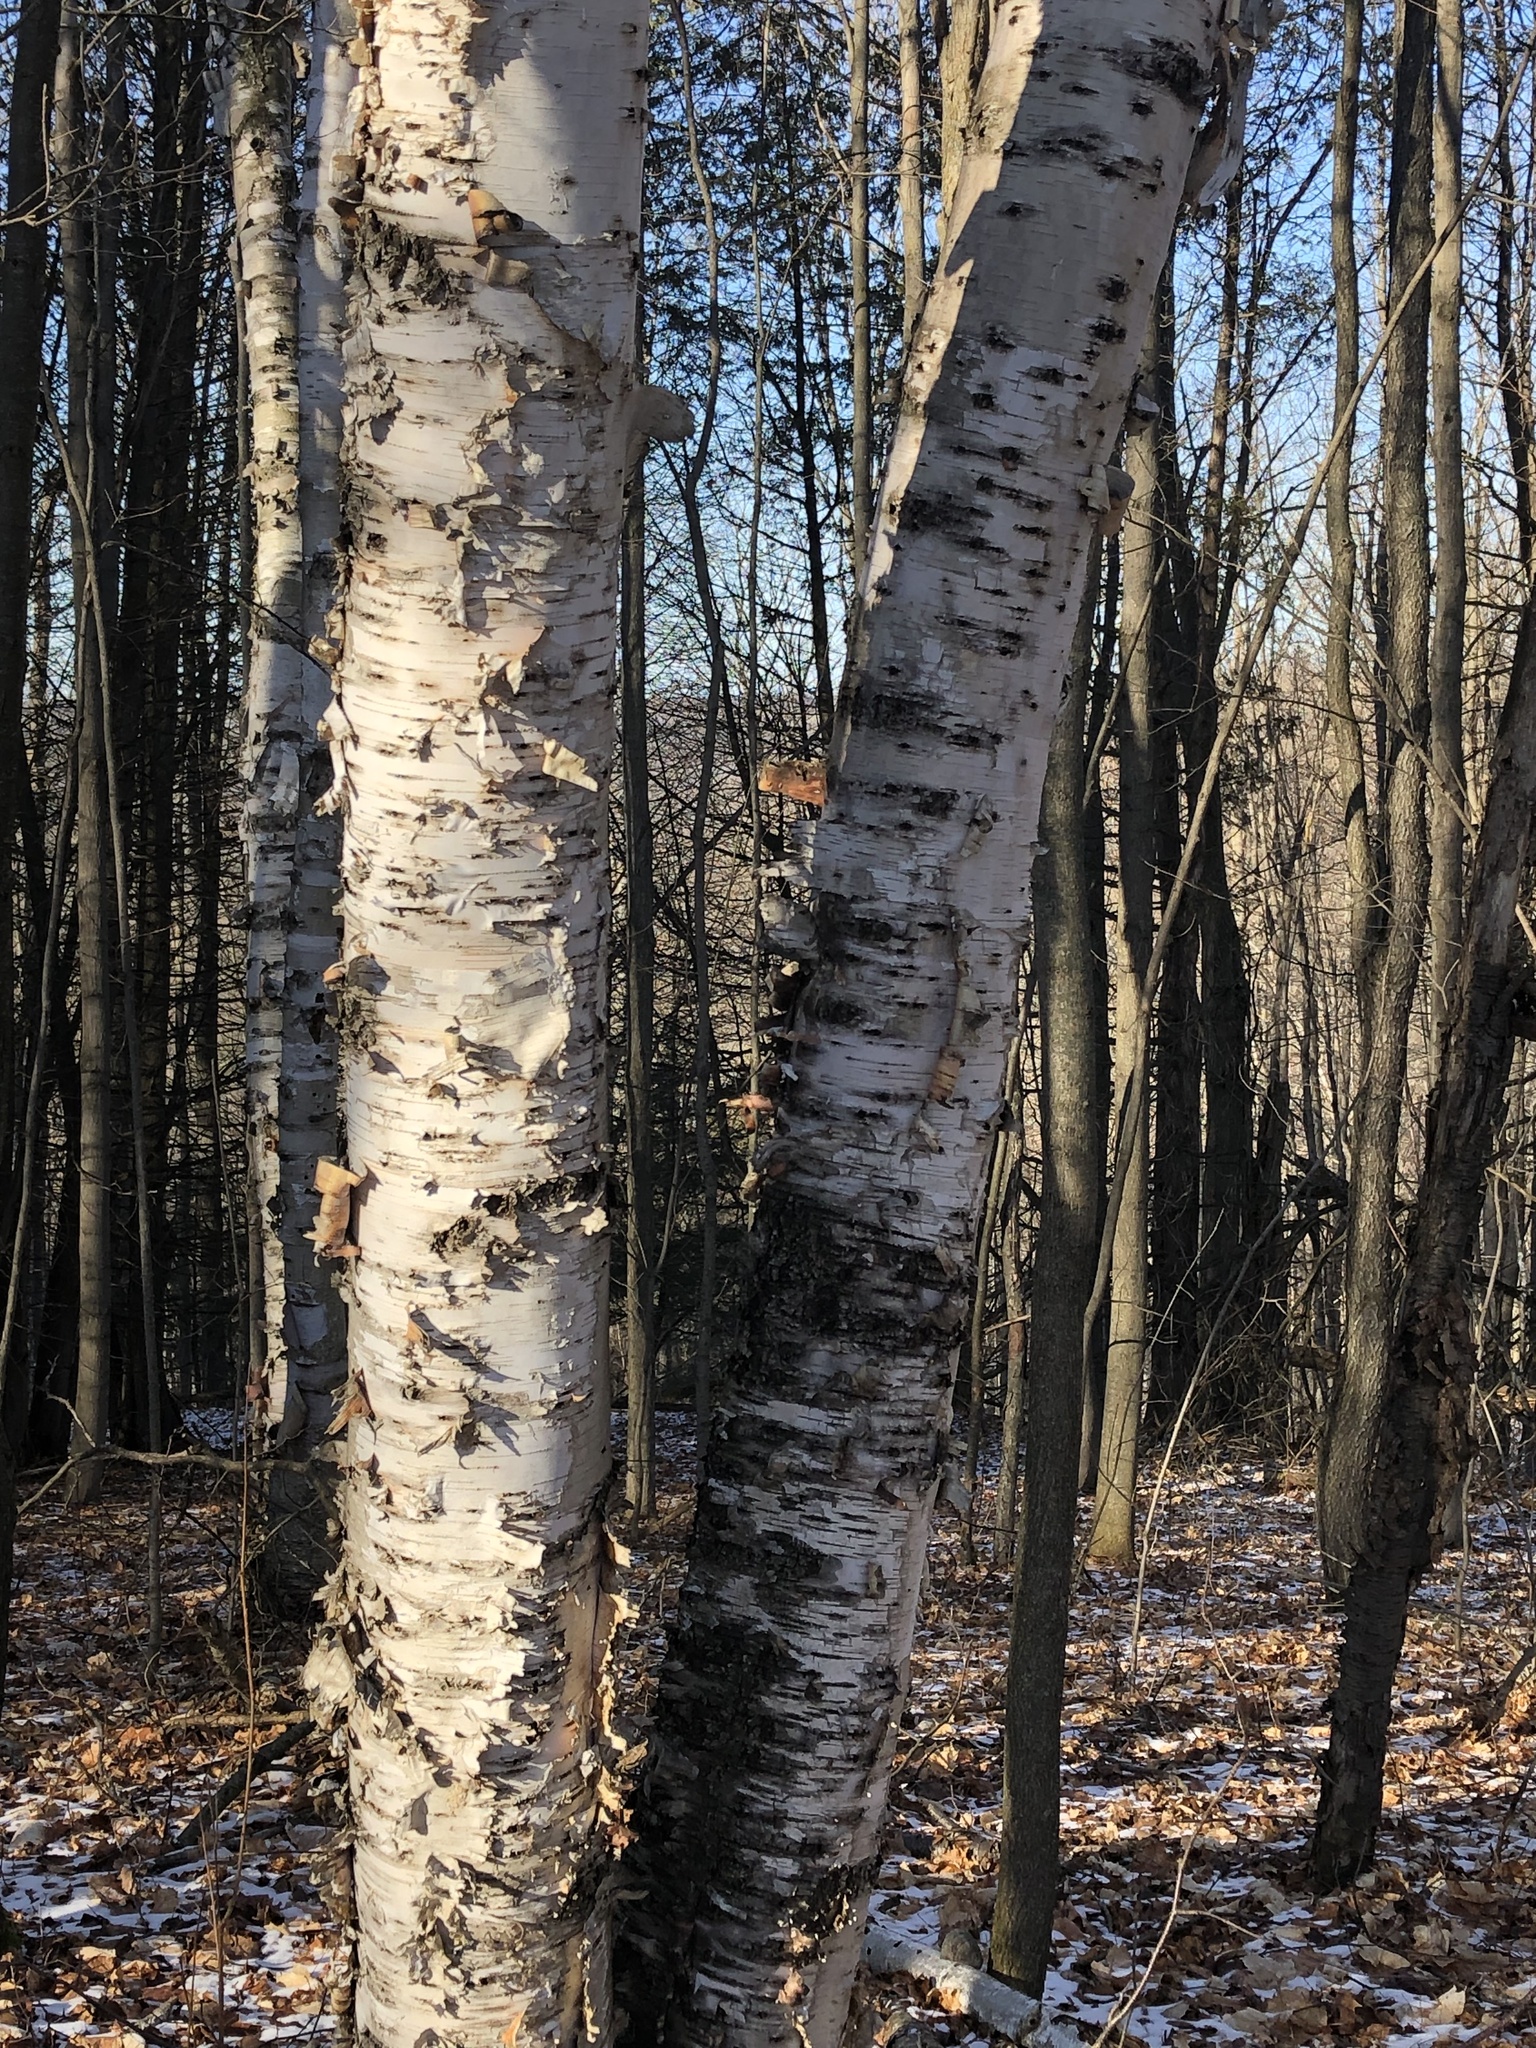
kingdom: Plantae
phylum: Tracheophyta
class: Magnoliopsida
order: Fagales
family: Betulaceae
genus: Betula
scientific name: Betula papyrifera
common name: Paper birch
